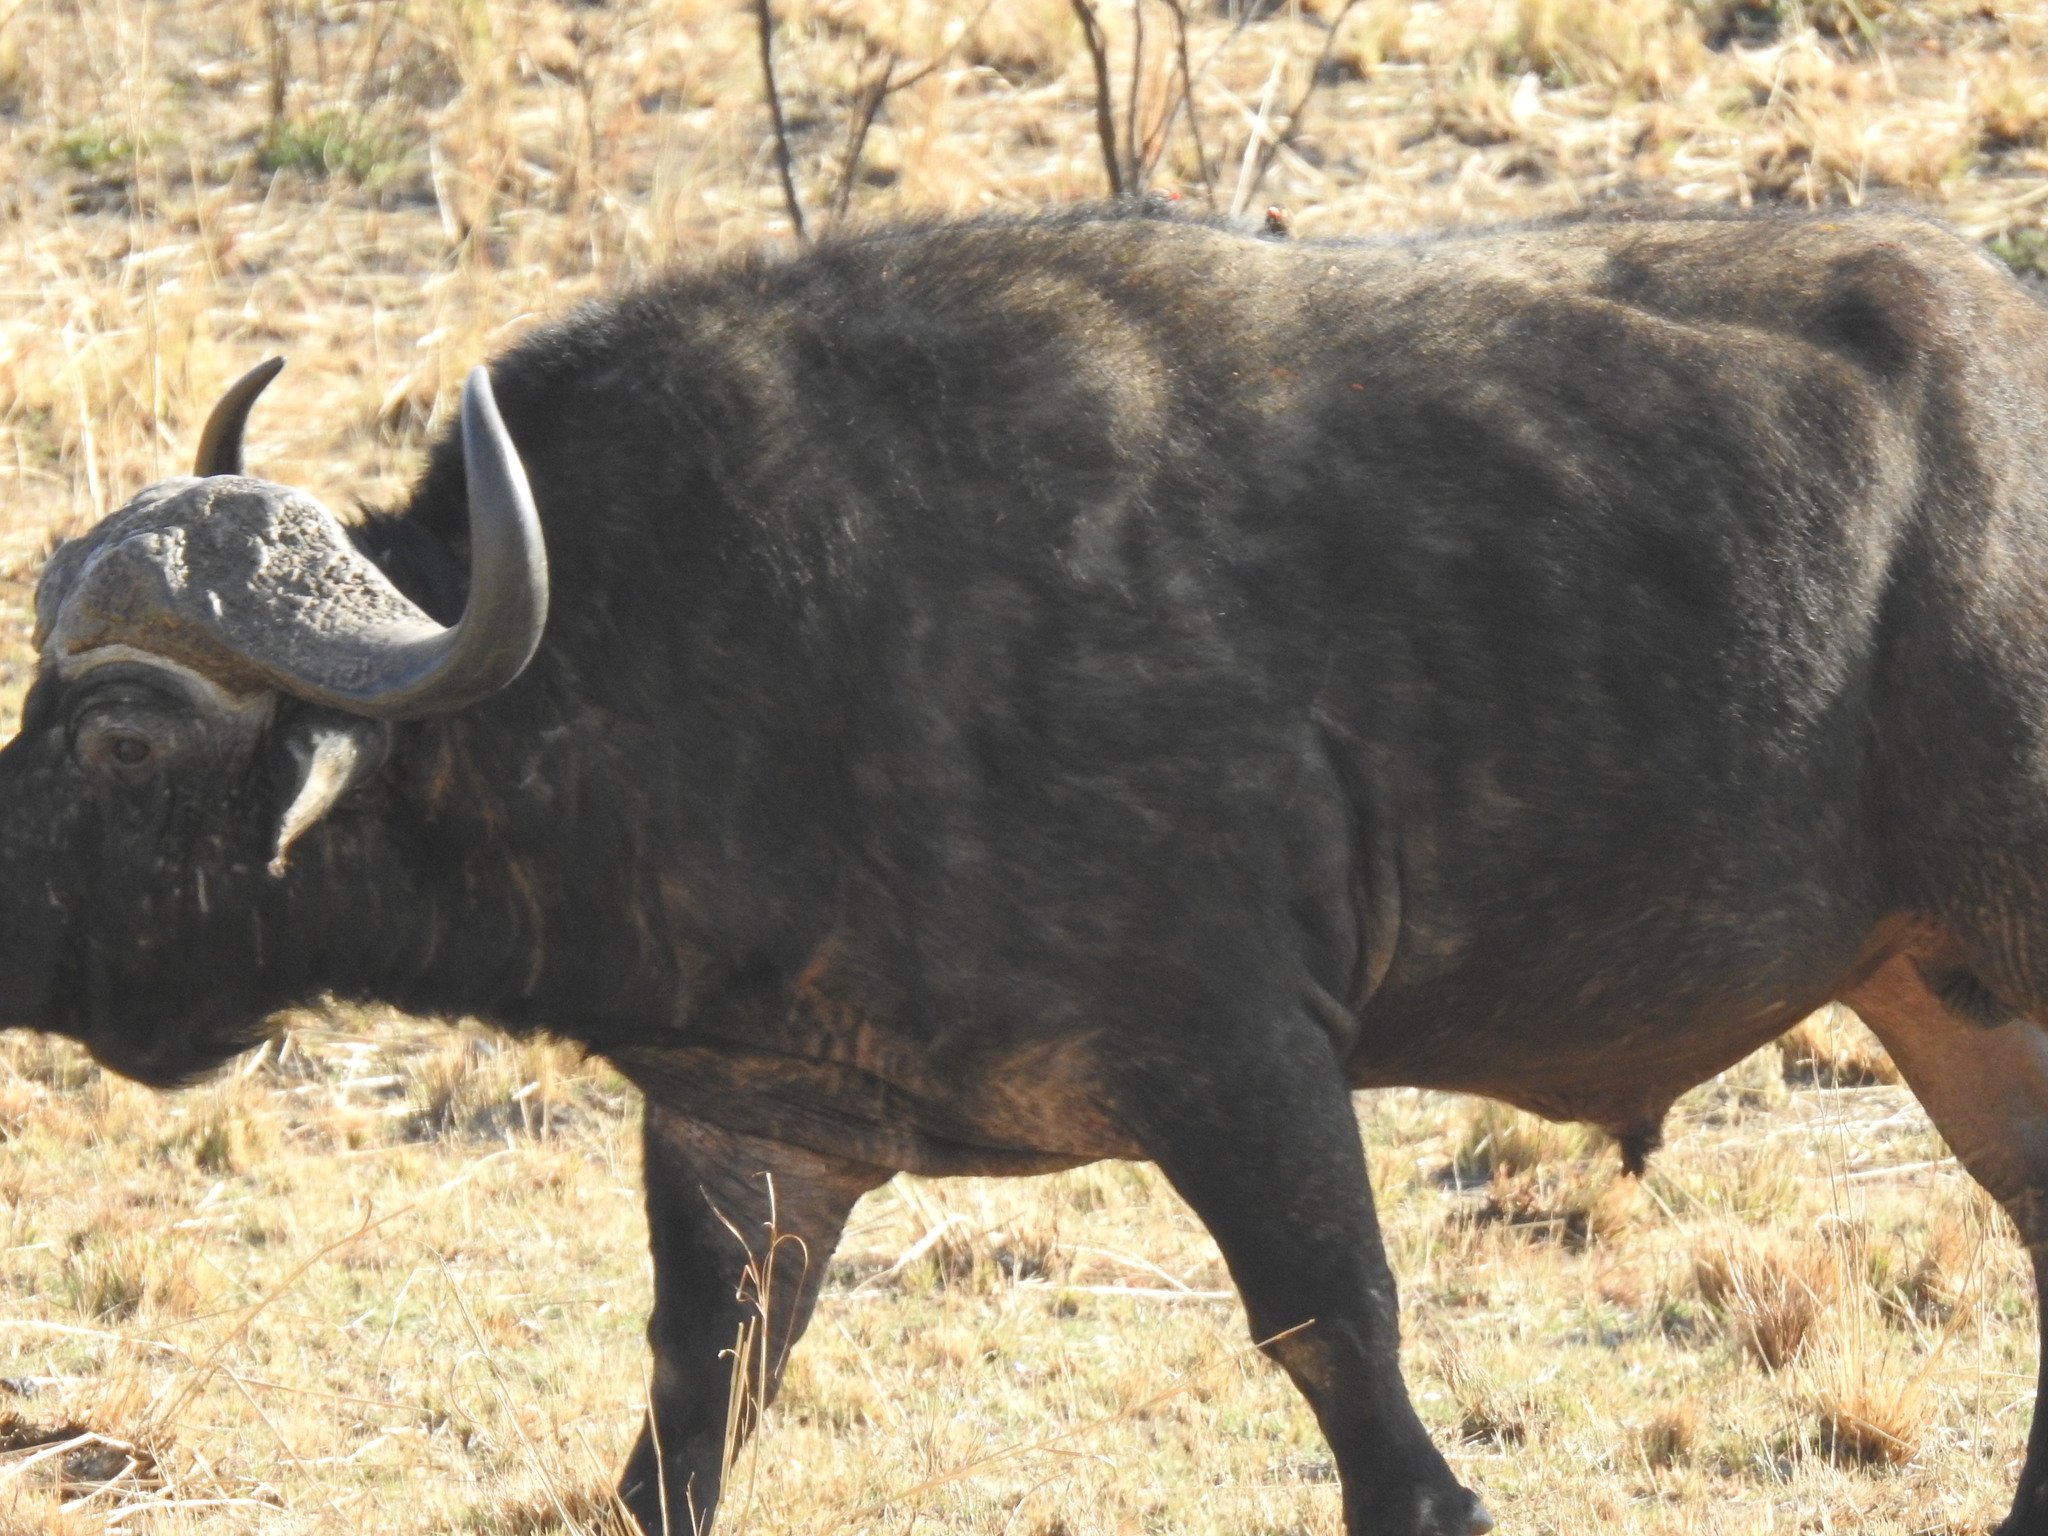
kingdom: Animalia
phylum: Chordata
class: Mammalia
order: Artiodactyla
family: Bovidae
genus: Syncerus
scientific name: Syncerus caffer
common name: African buffalo
